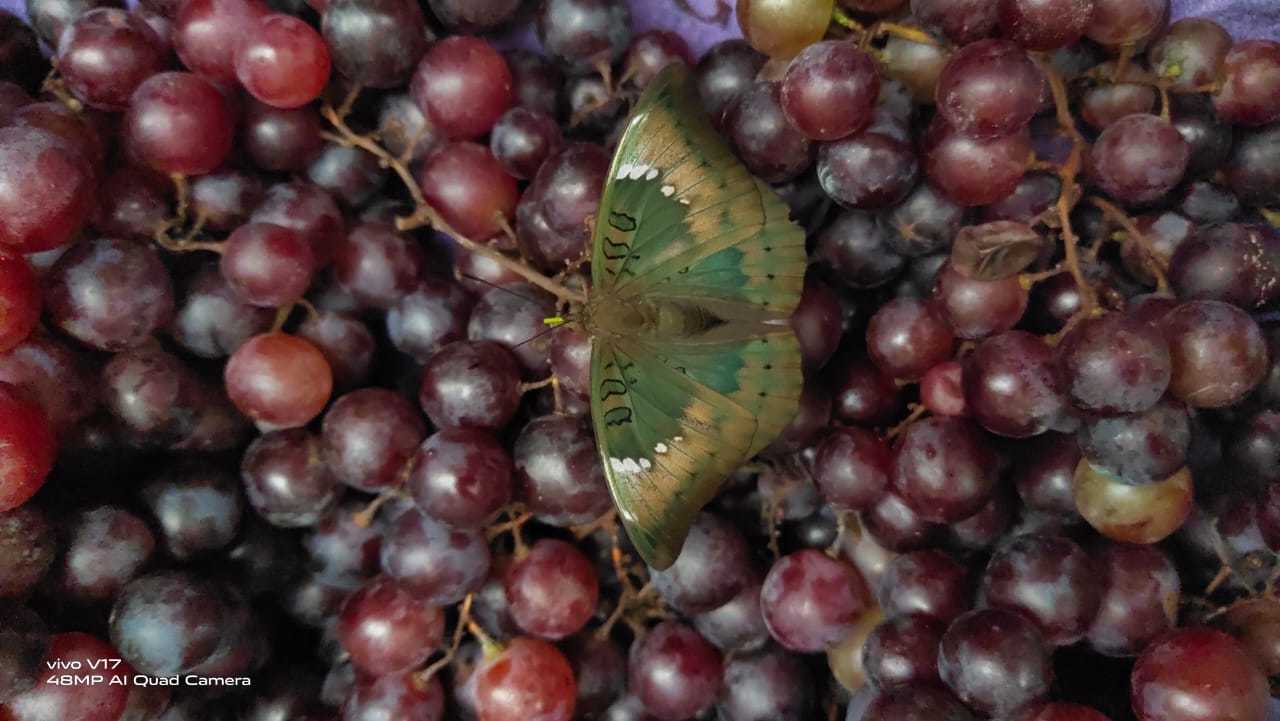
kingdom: Animalia
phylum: Arthropoda
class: Insecta
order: Lepidoptera
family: Nymphalidae
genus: Euthalia
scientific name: Euthalia aconthea
